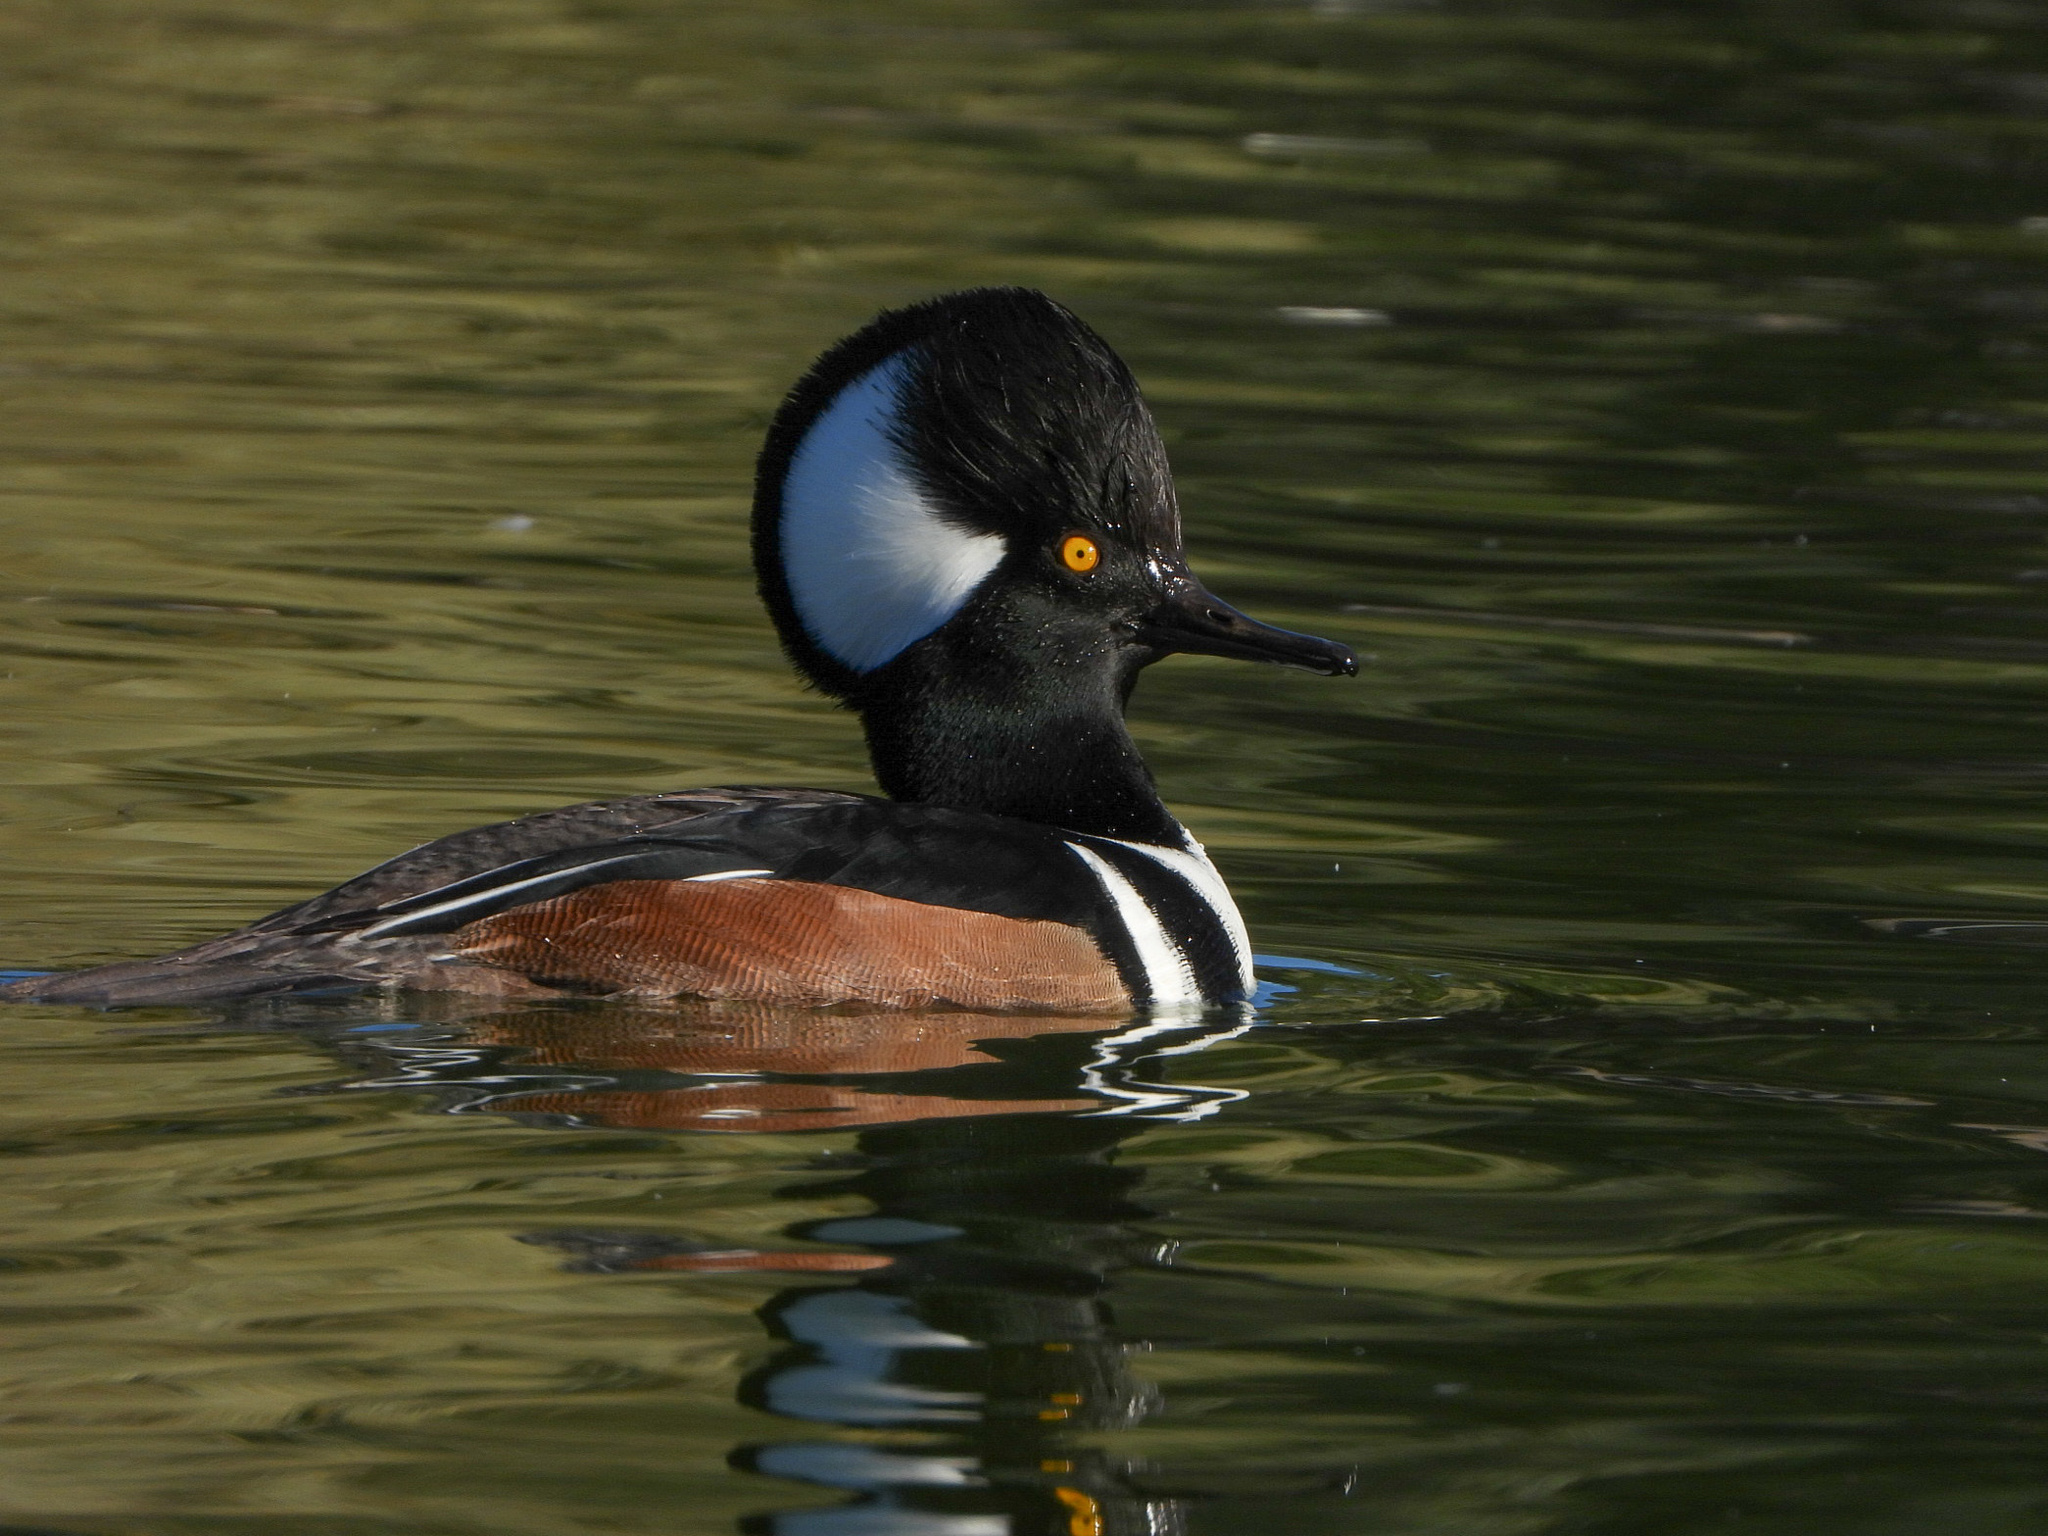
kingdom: Animalia
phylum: Chordata
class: Aves
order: Anseriformes
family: Anatidae
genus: Lophodytes
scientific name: Lophodytes cucullatus
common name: Hooded merganser
